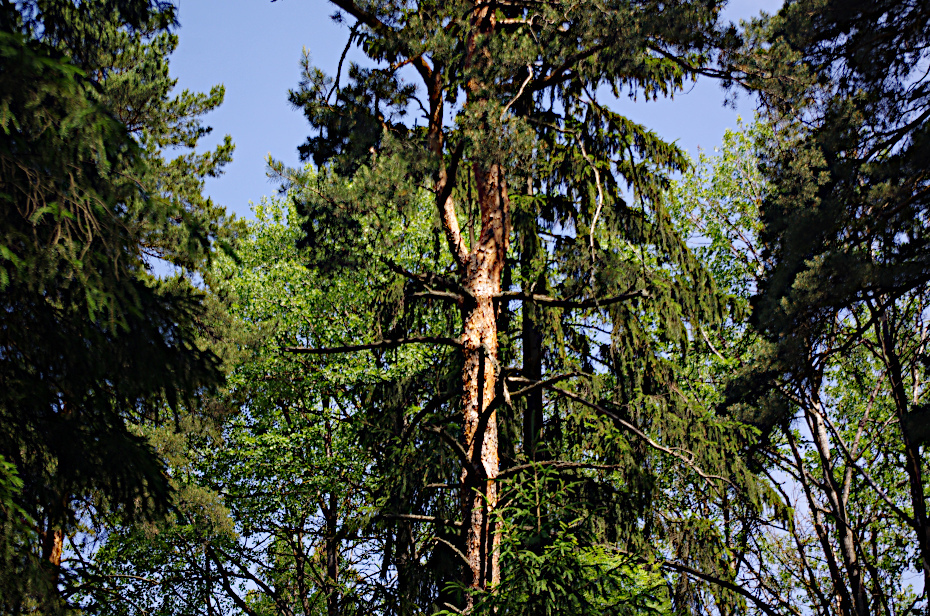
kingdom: Plantae
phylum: Tracheophyta
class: Pinopsida
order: Pinales
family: Pinaceae
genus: Pinus
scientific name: Pinus sylvestris
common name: Scots pine
